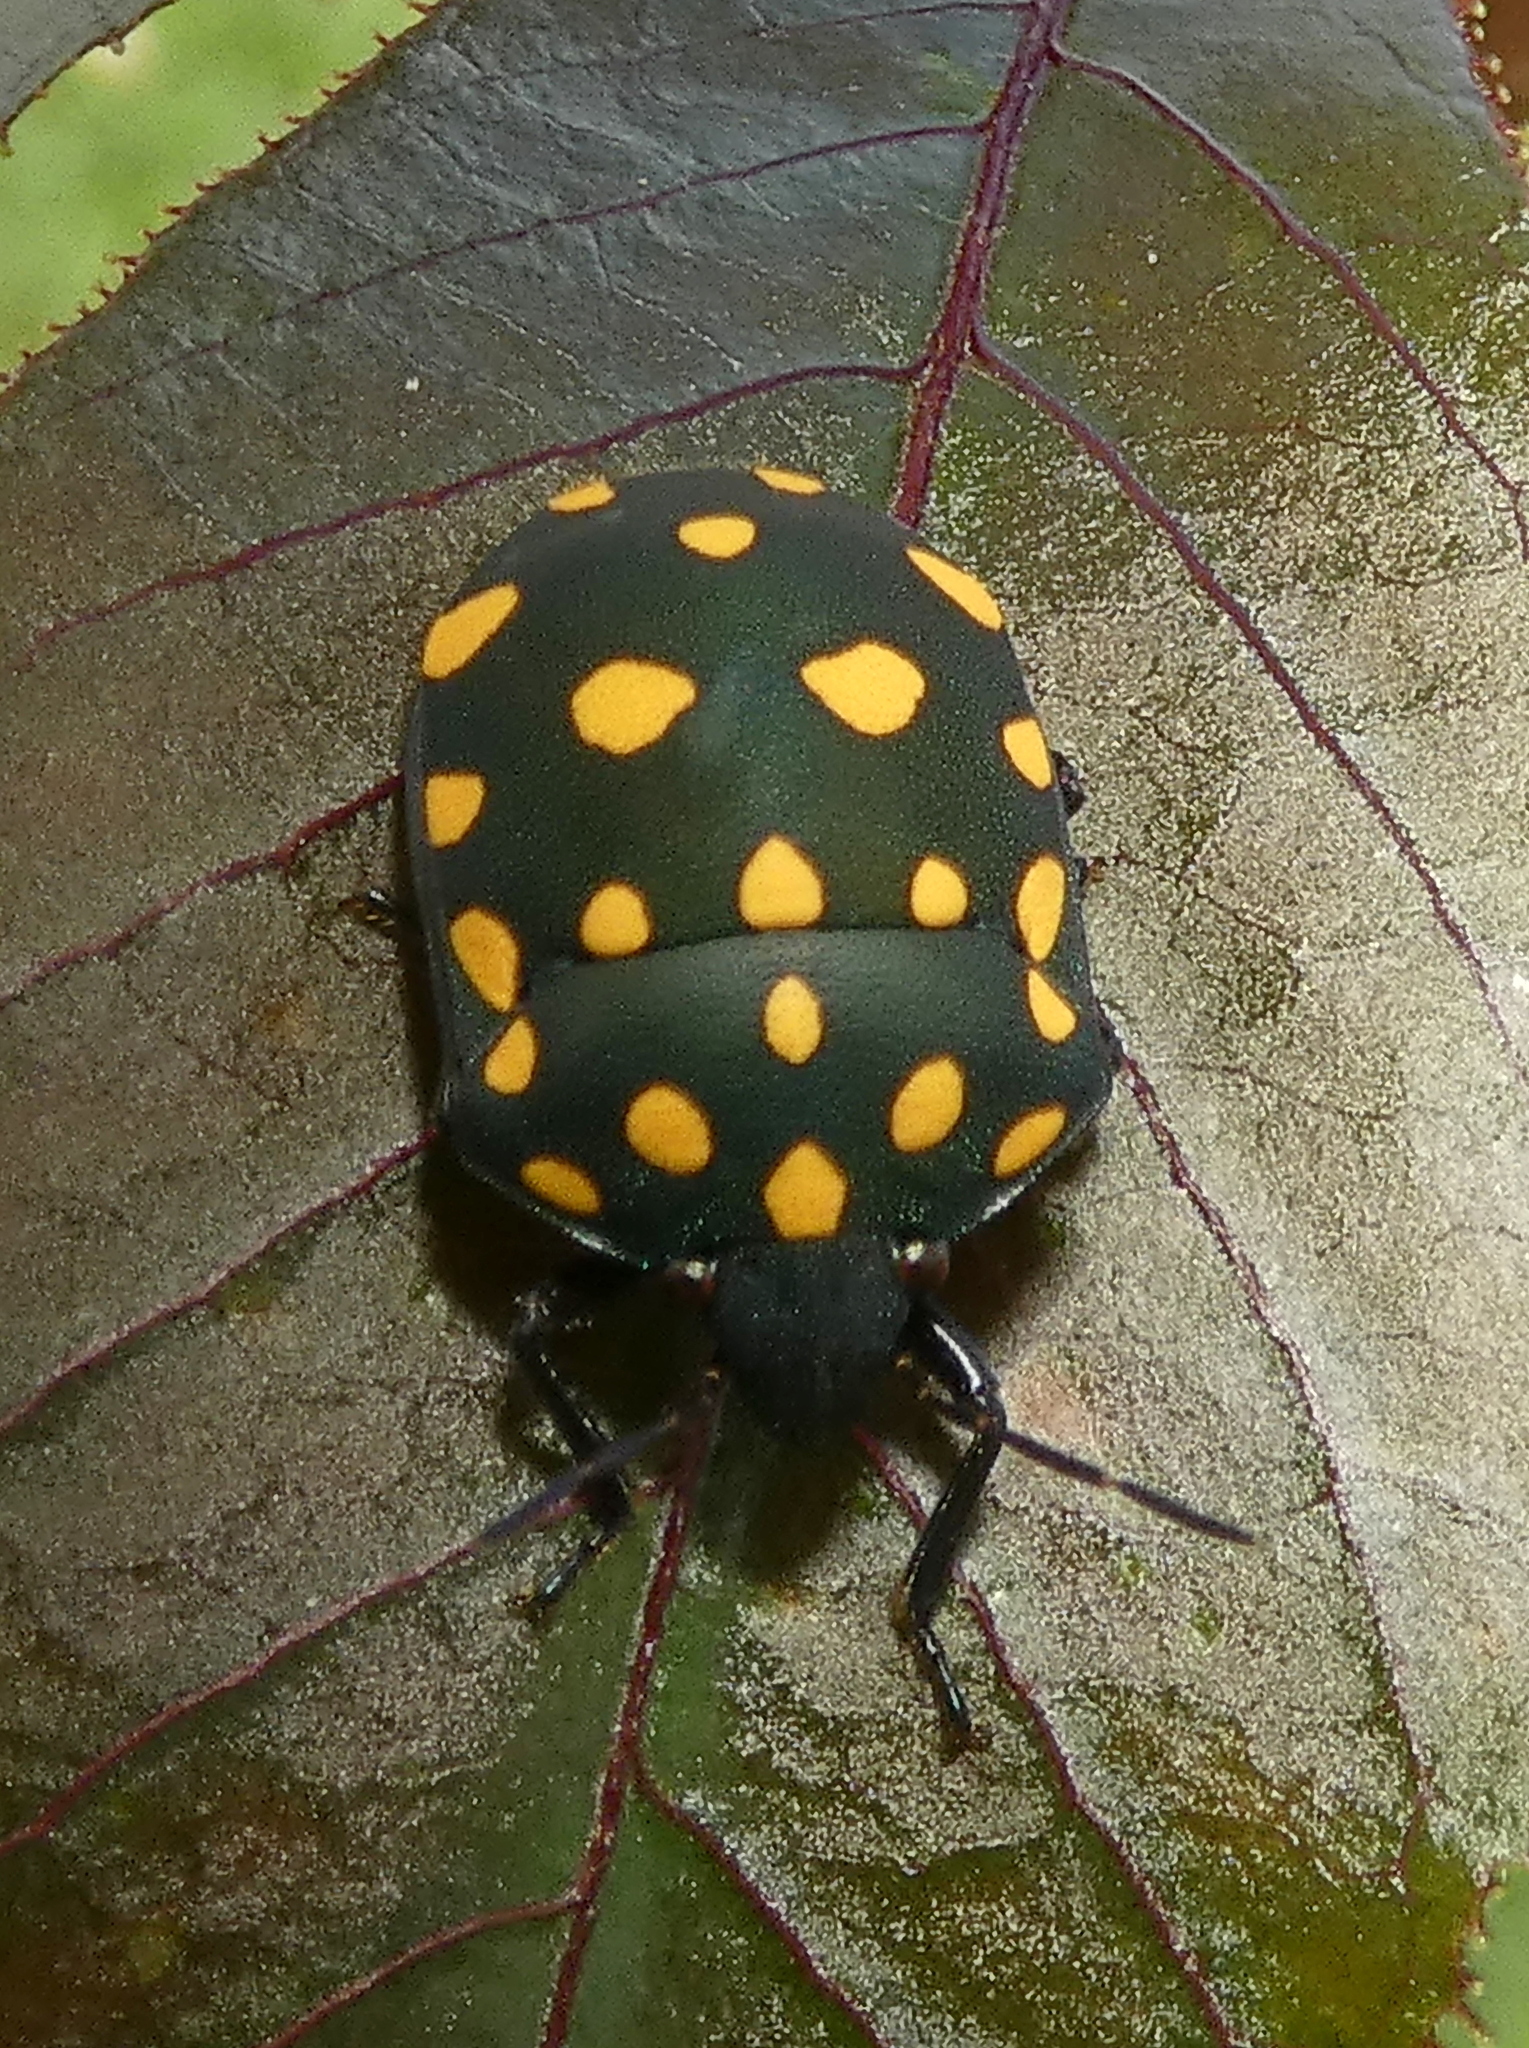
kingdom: Animalia
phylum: Arthropoda
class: Insecta
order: Hemiptera
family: Scutelleridae
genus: Pachycoris
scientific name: Pachycoris torridus
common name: Torrid jewel bug
